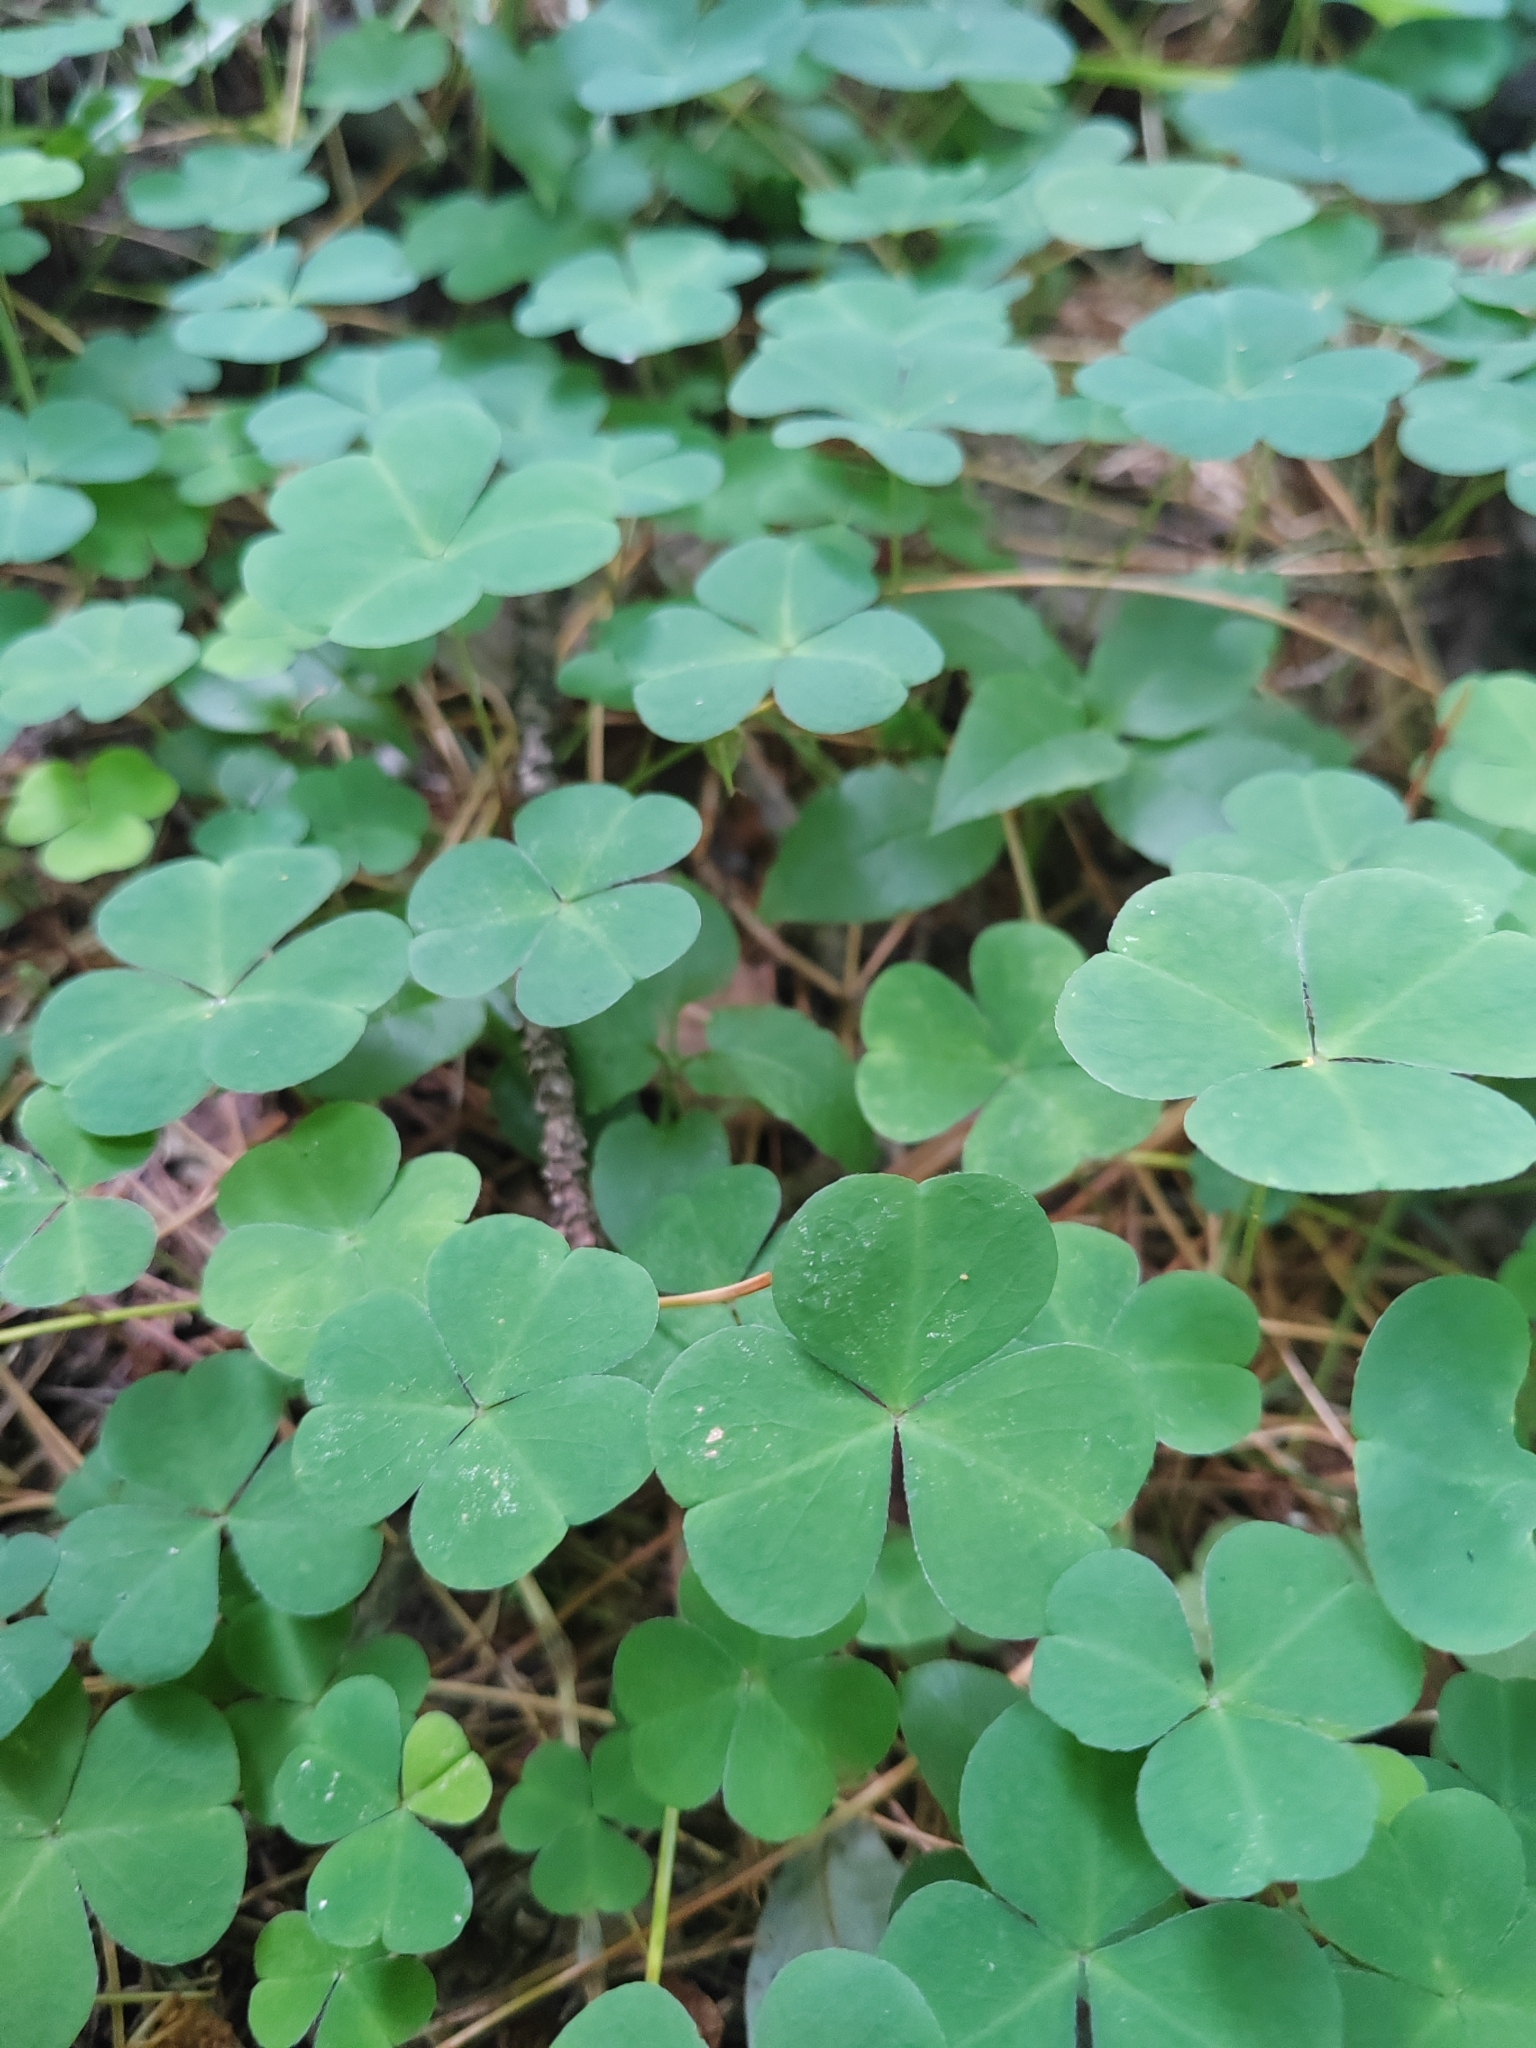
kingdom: Plantae
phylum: Tracheophyta
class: Magnoliopsida
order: Oxalidales
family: Oxalidaceae
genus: Oxalis
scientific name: Oxalis acetosella
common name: Wood-sorrel
